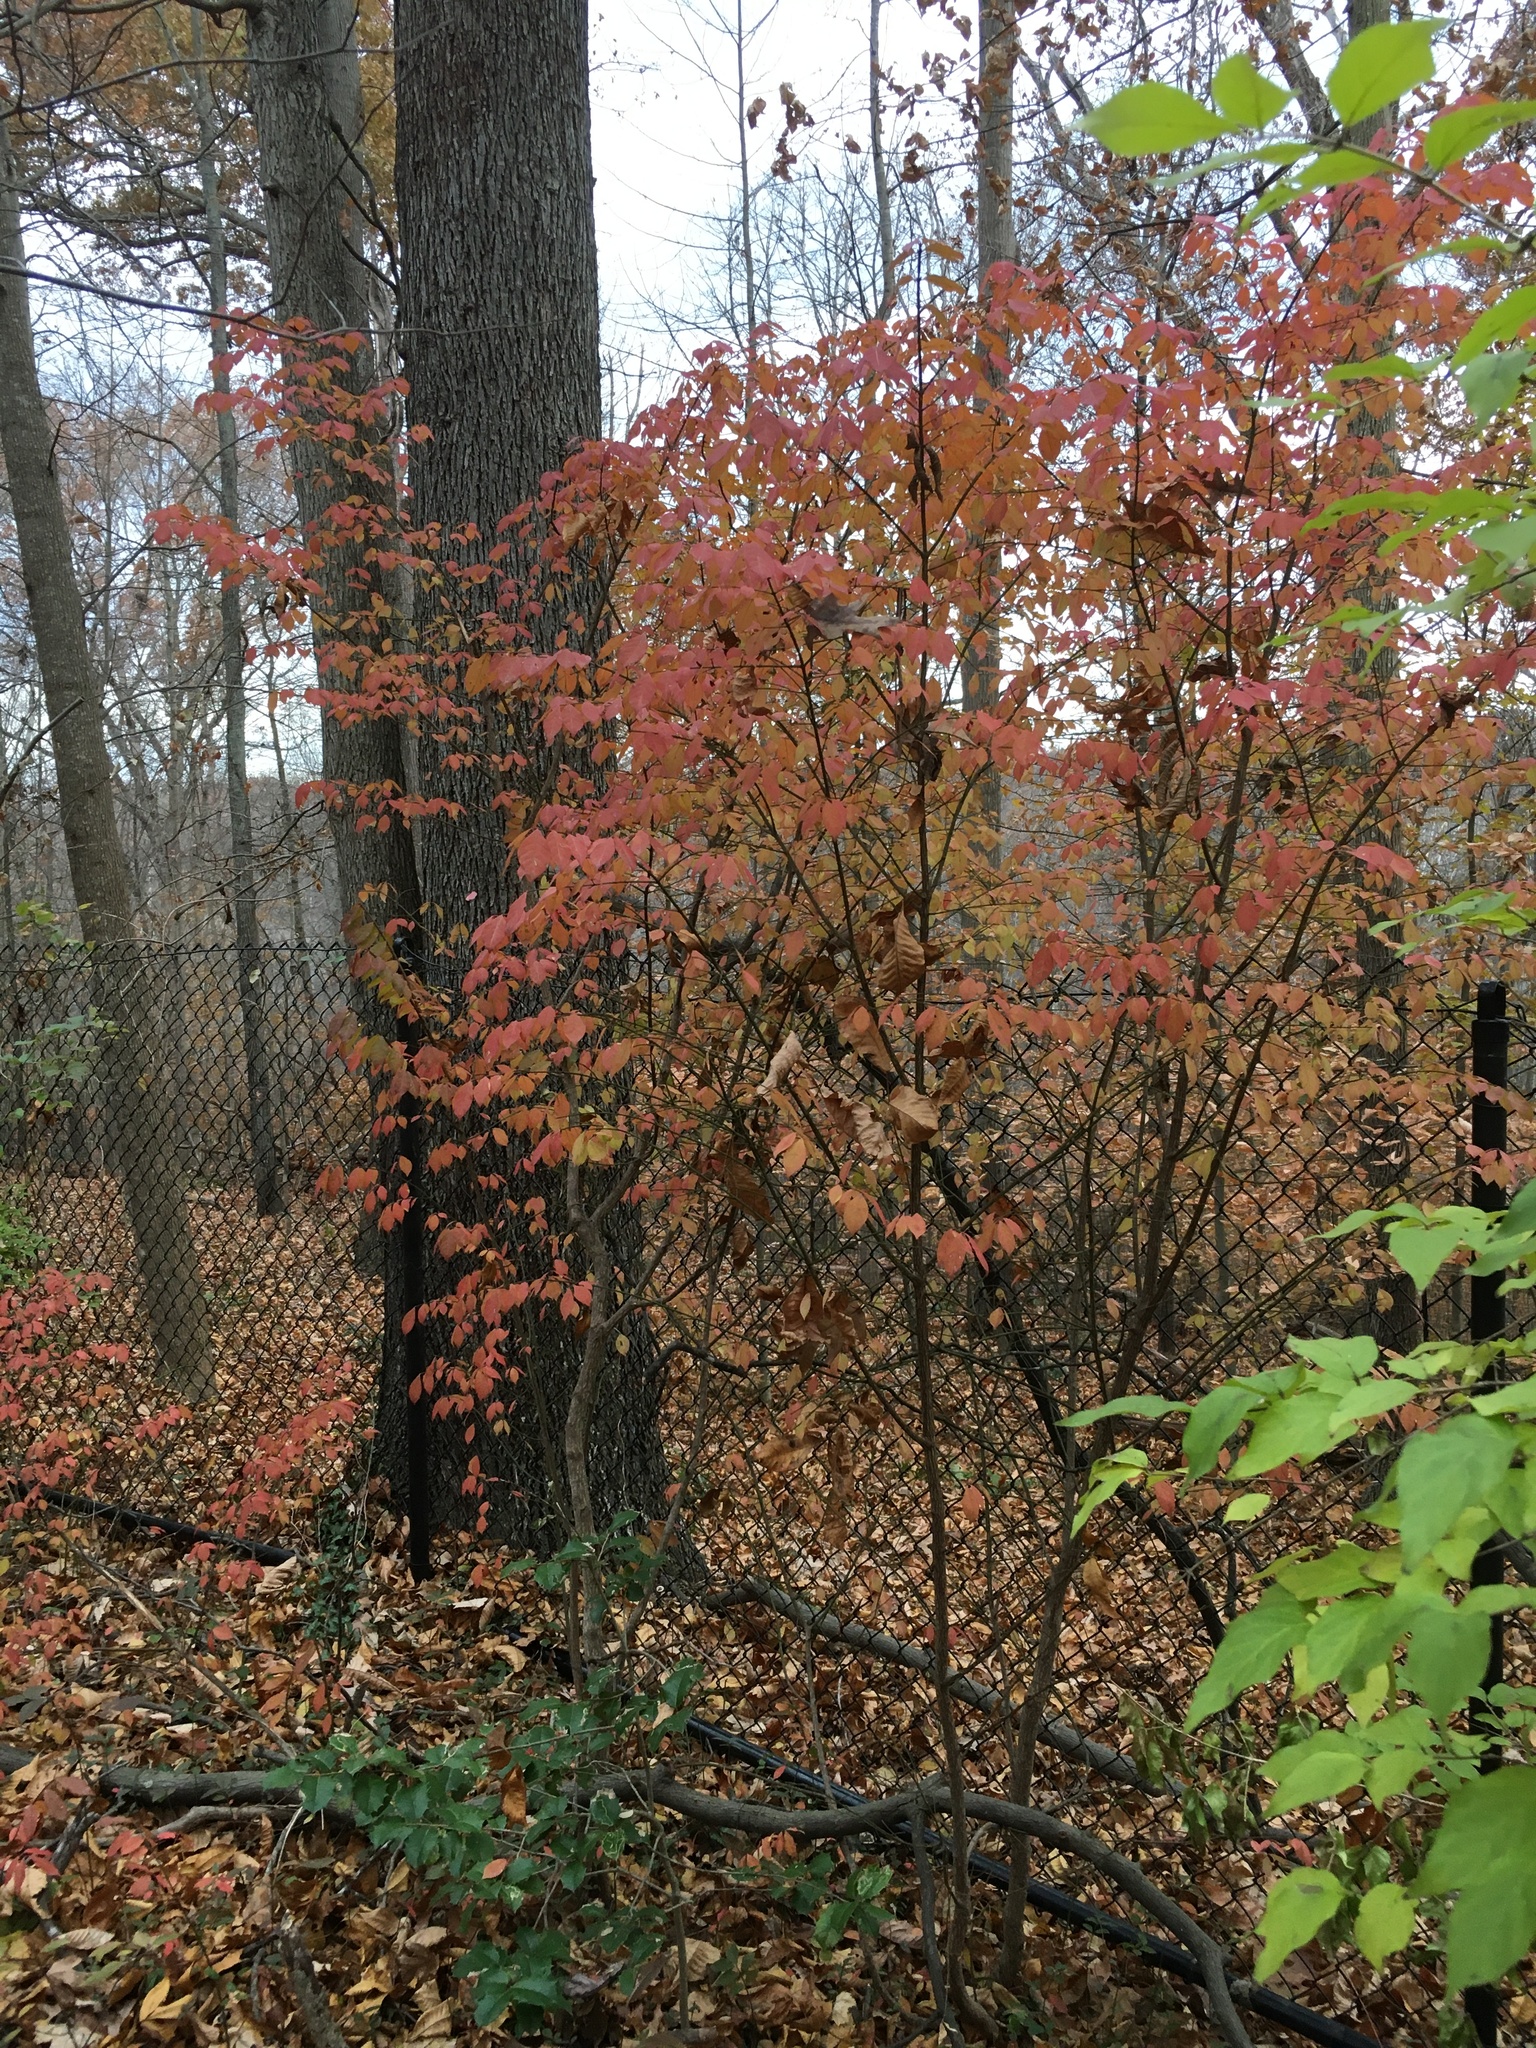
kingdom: Plantae
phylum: Tracheophyta
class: Magnoliopsida
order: Celastrales
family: Celastraceae
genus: Euonymus
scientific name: Euonymus alatus
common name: Winged euonymus
